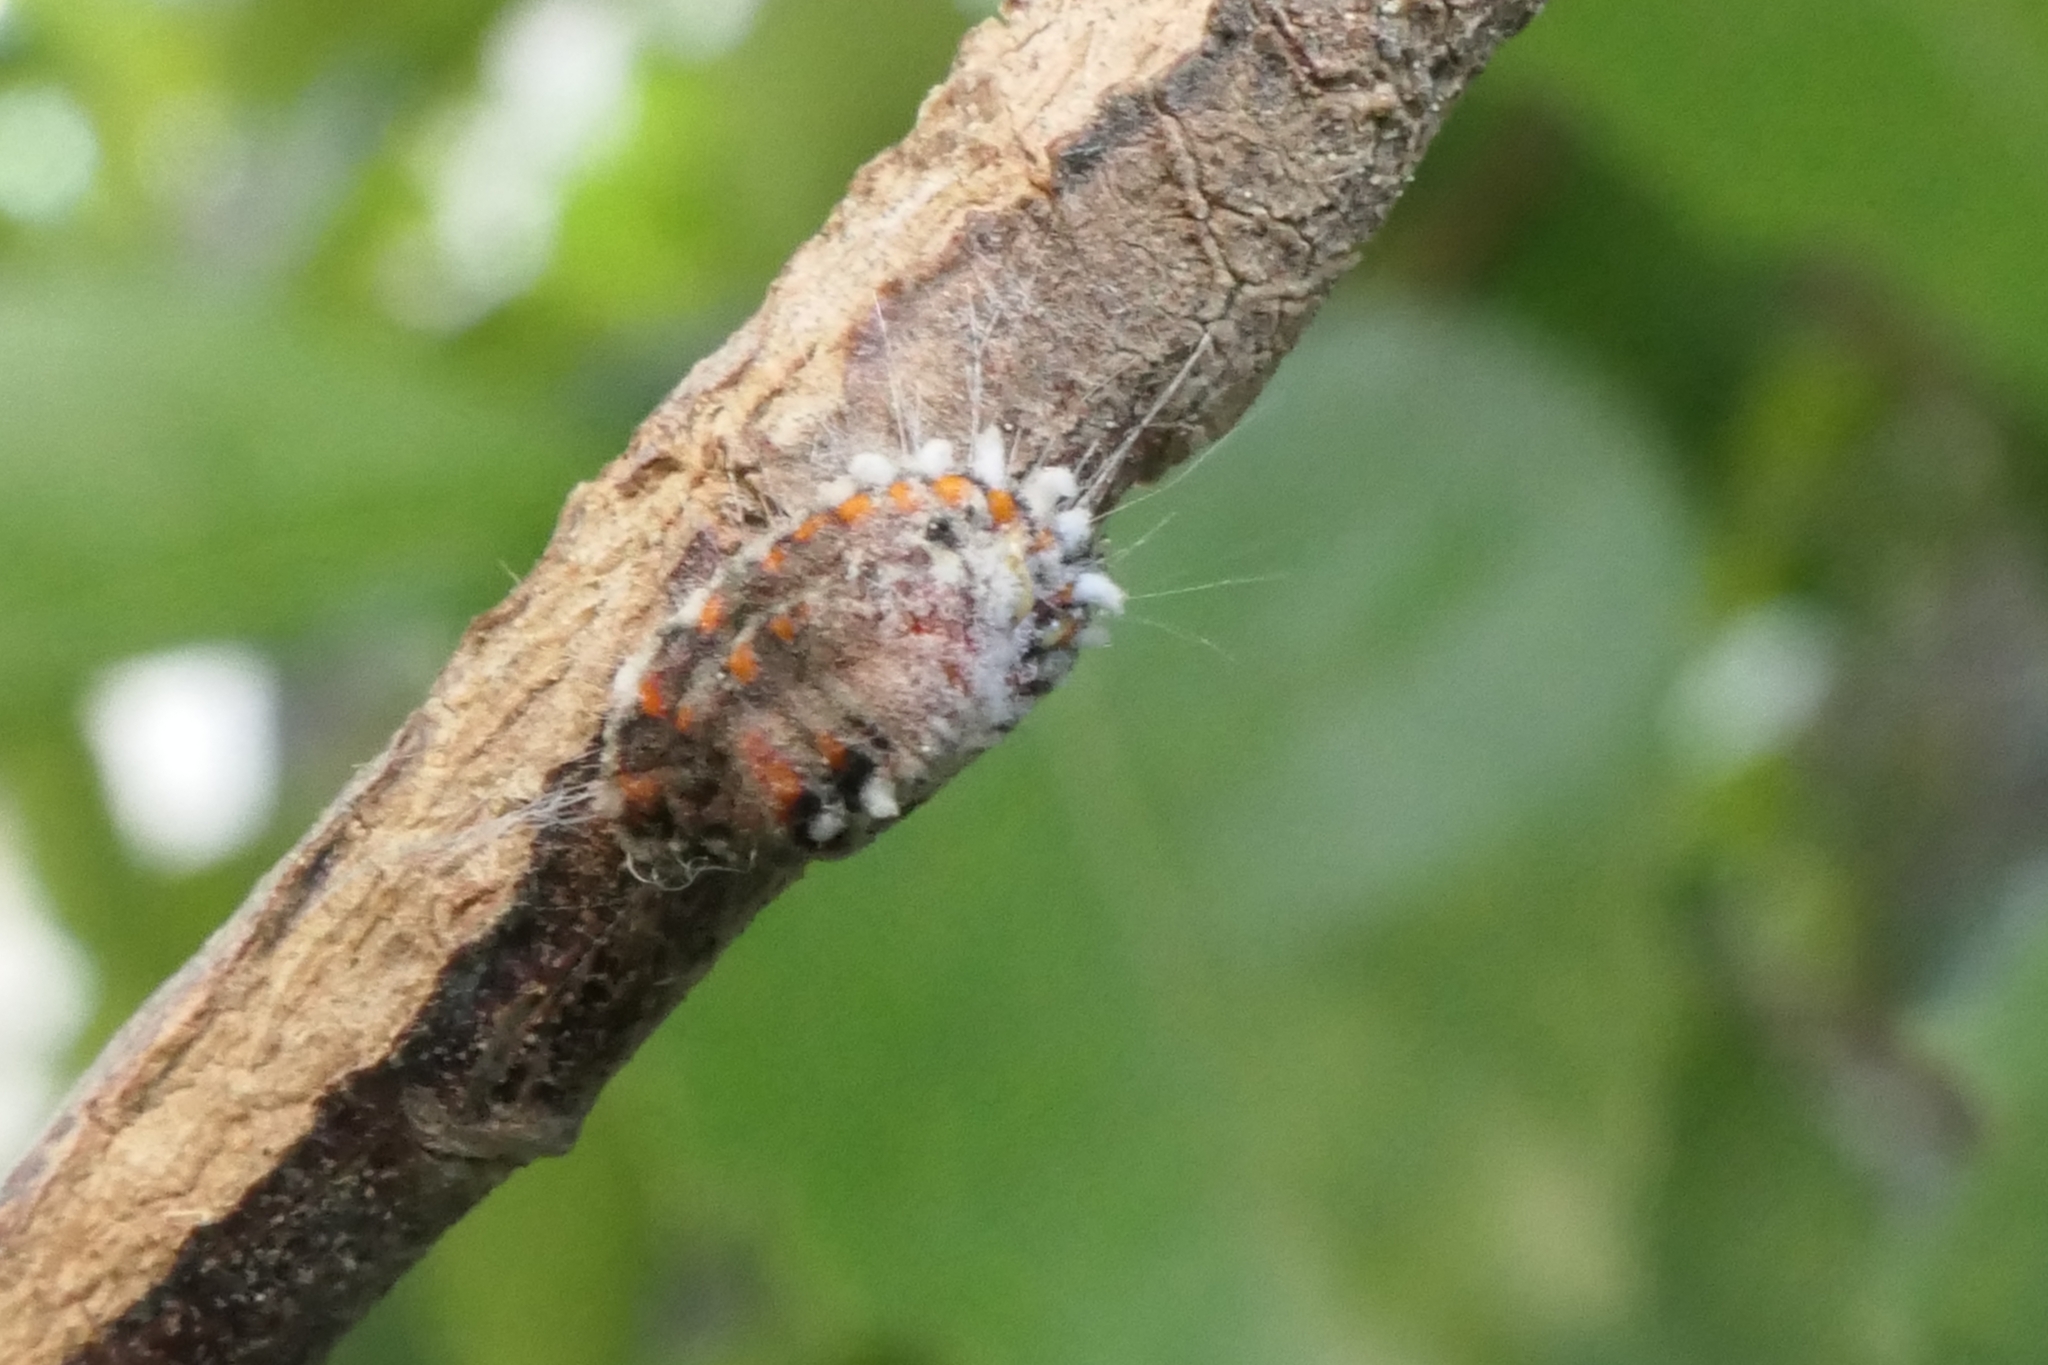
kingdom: Animalia
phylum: Arthropoda
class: Insecta
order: Hemiptera
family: Margarodidae
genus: Icerya
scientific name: Icerya purchasi
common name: Cottony cushion scale
